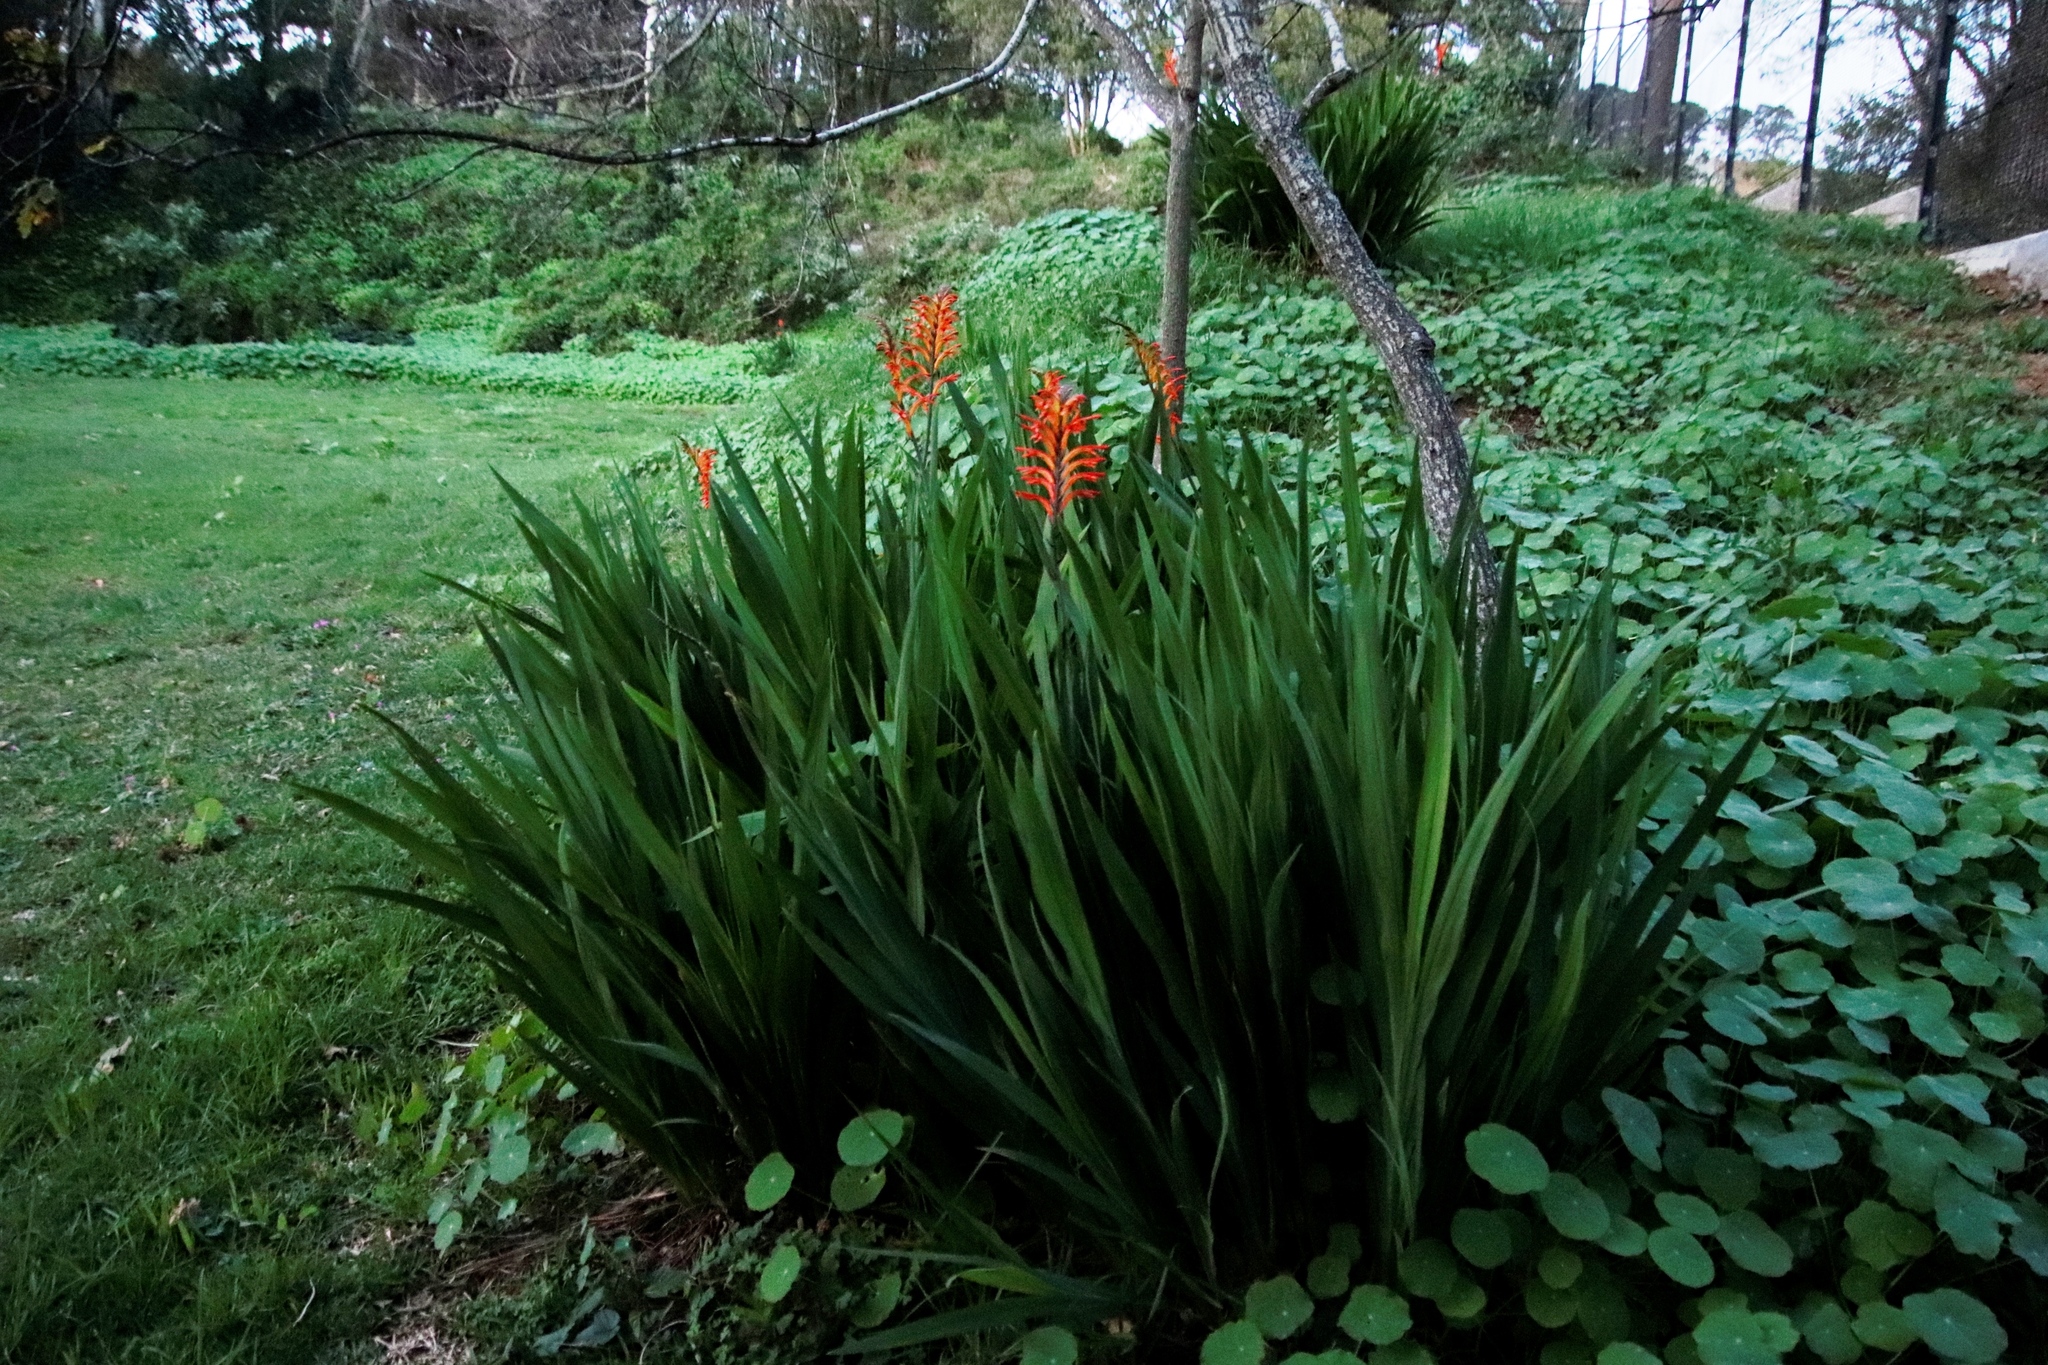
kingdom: Plantae
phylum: Tracheophyta
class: Liliopsida
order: Asparagales
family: Iridaceae
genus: Chasmanthe
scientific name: Chasmanthe floribunda
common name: African cornflag
